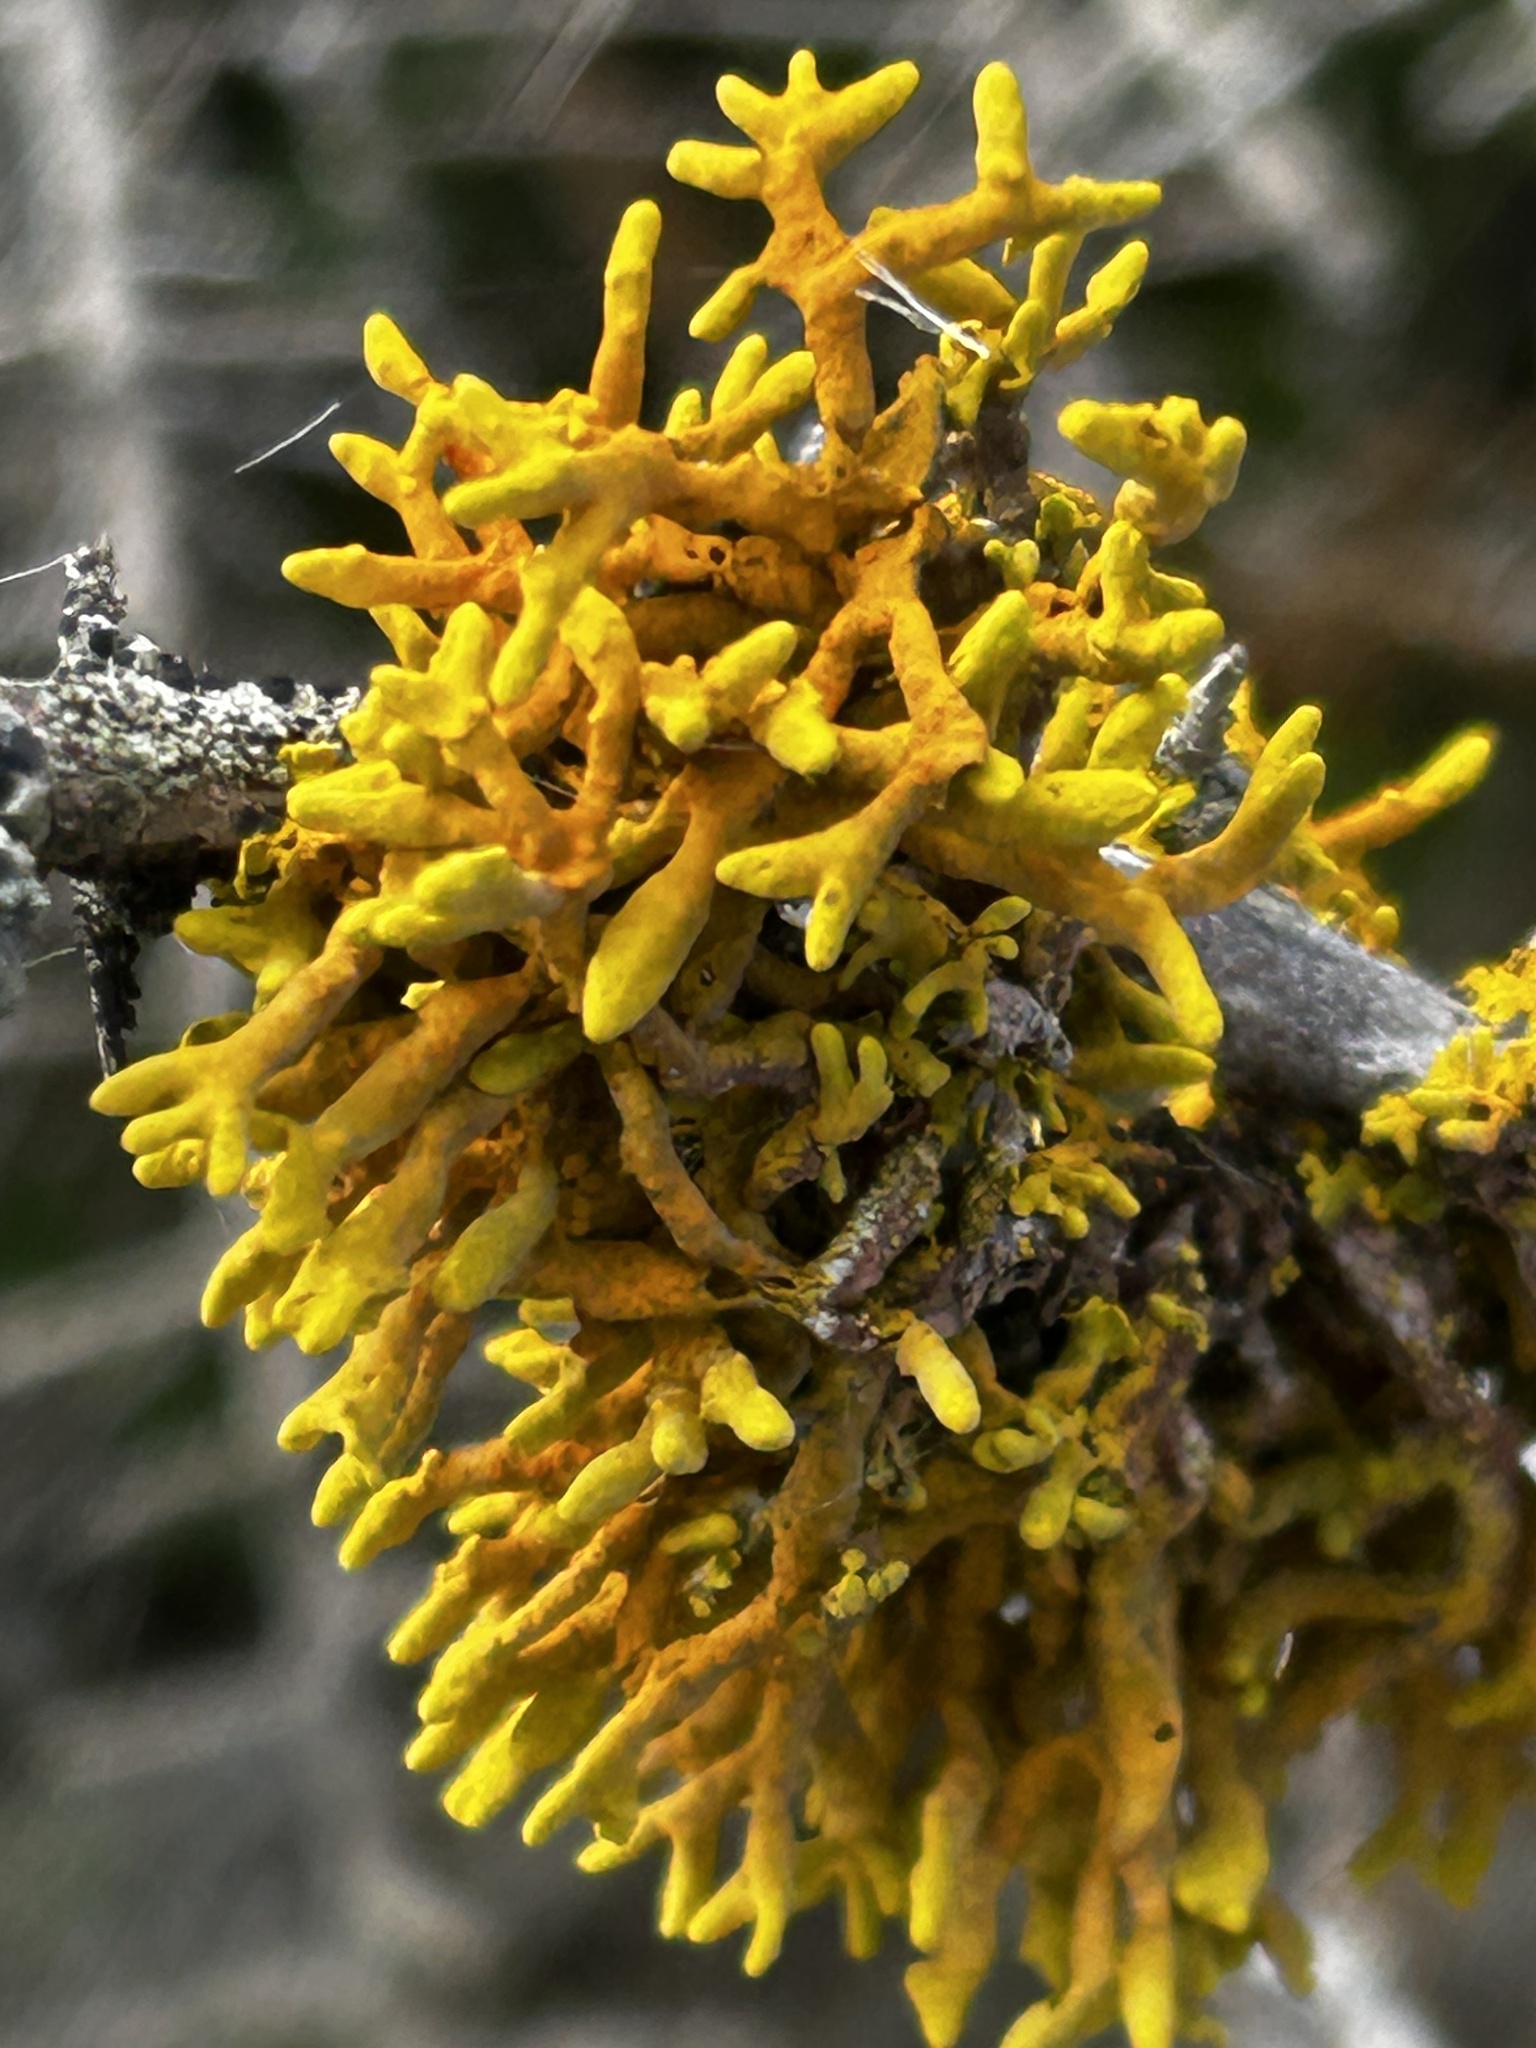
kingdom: Fungi
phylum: Ascomycota
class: Lecanoromycetes
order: Teloschistales
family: Teloschistaceae
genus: Dufourea
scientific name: Dufourea flammea
